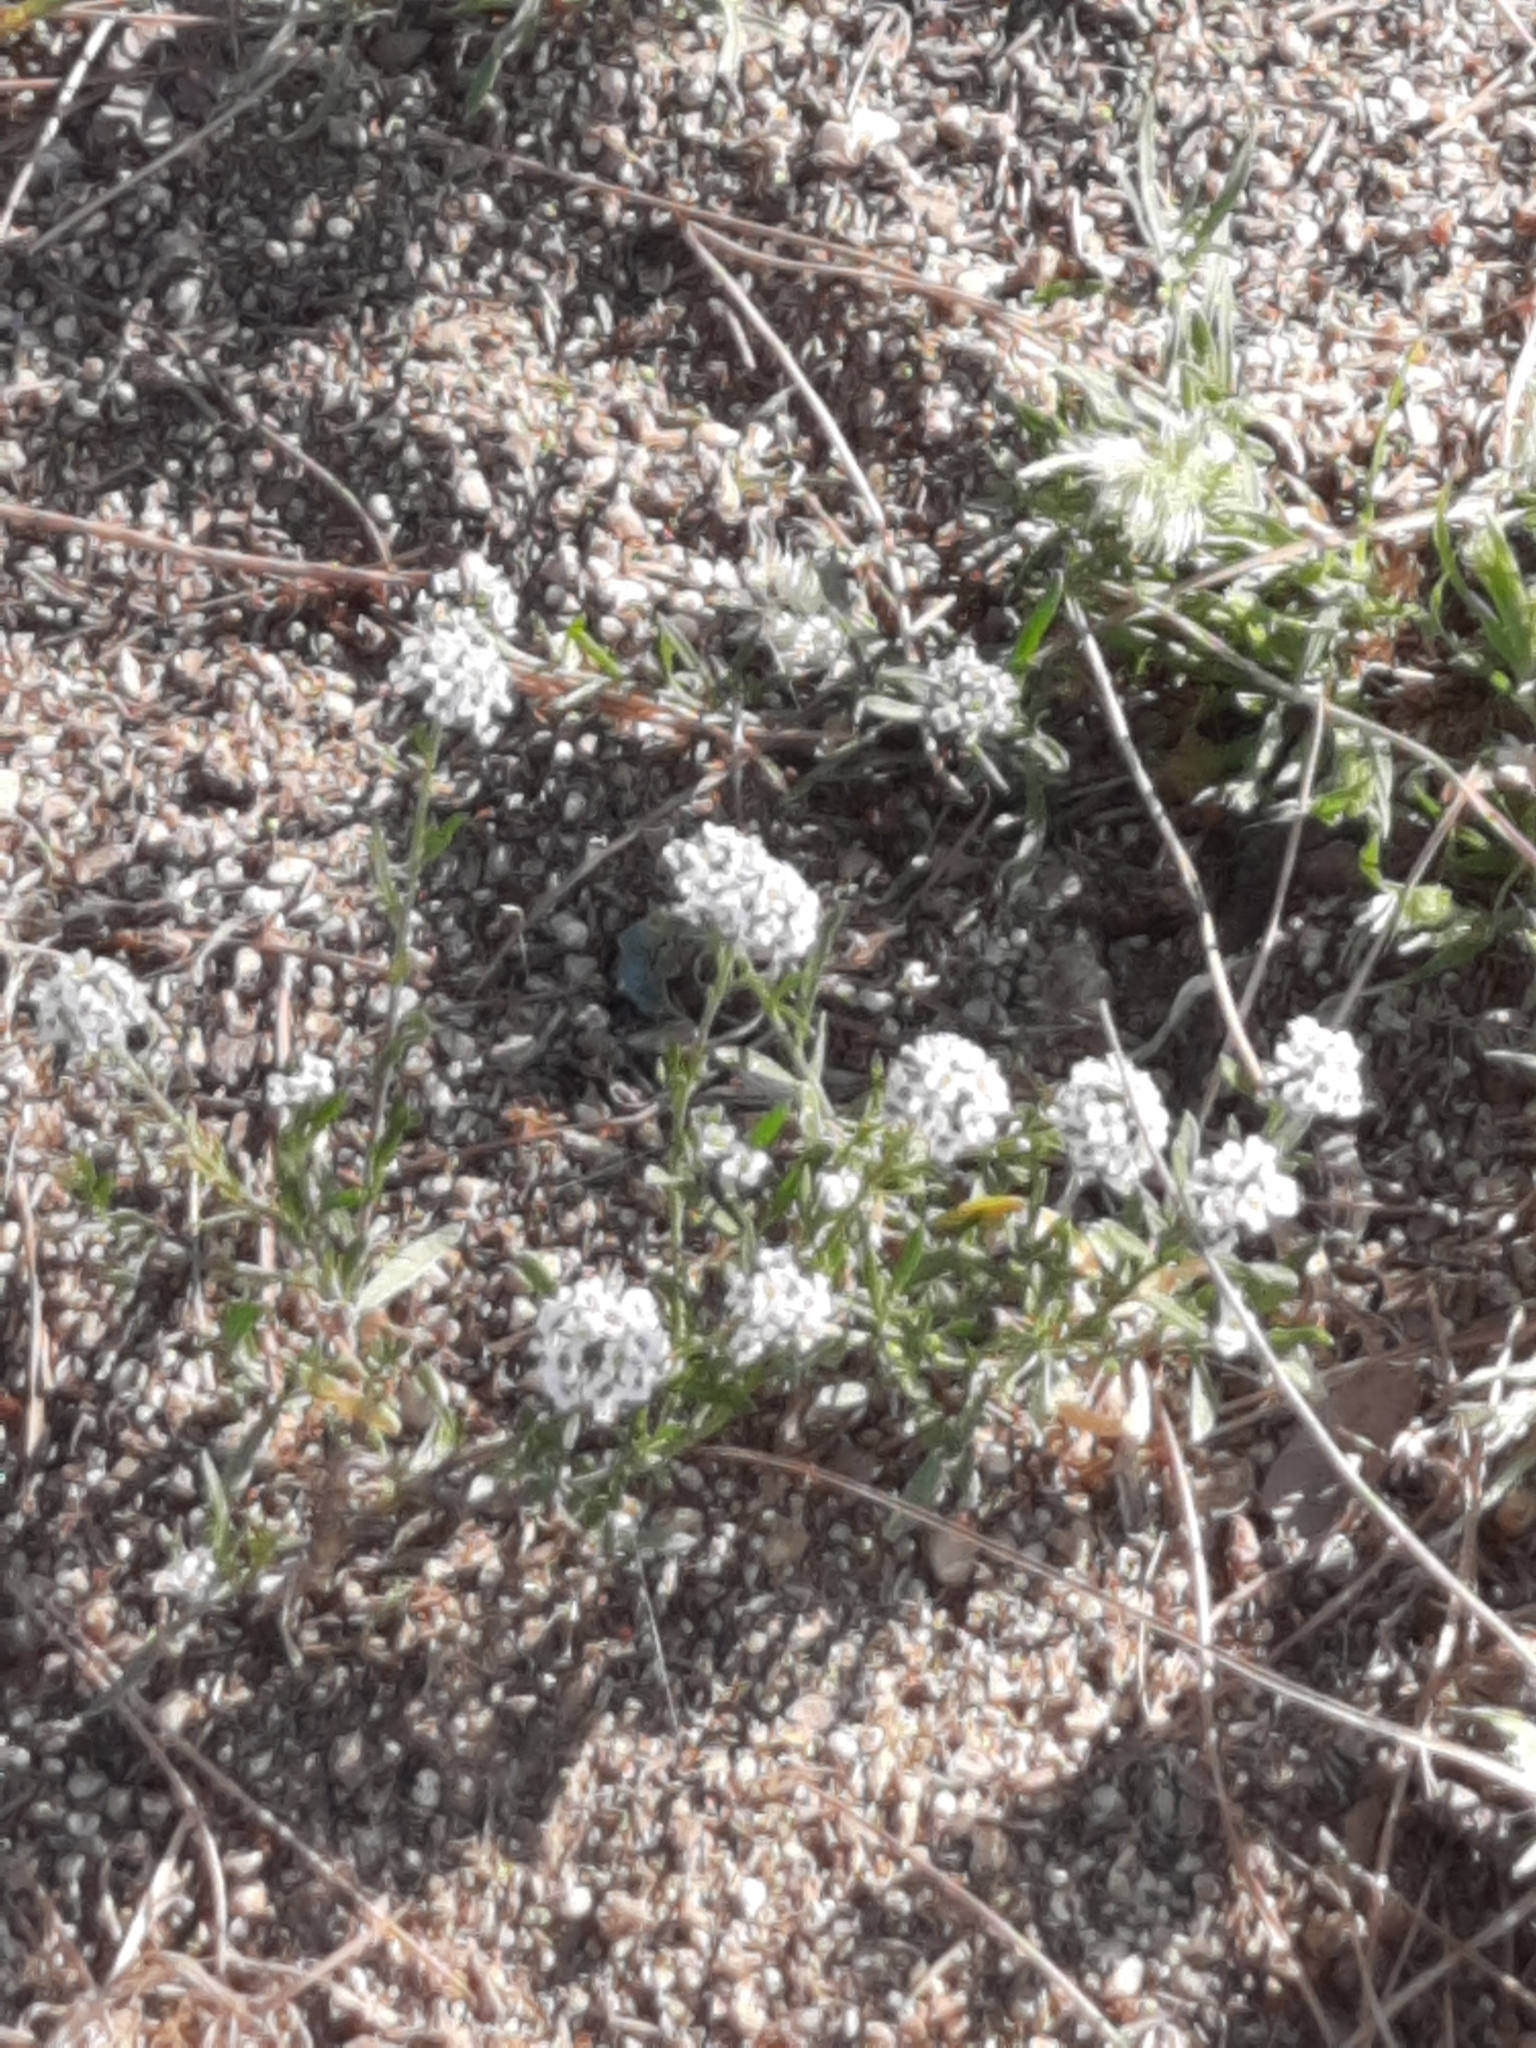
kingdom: Plantae
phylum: Tracheophyta
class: Magnoliopsida
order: Brassicales
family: Brassicaceae
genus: Lobularia
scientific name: Lobularia maritima
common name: Sweet alison
